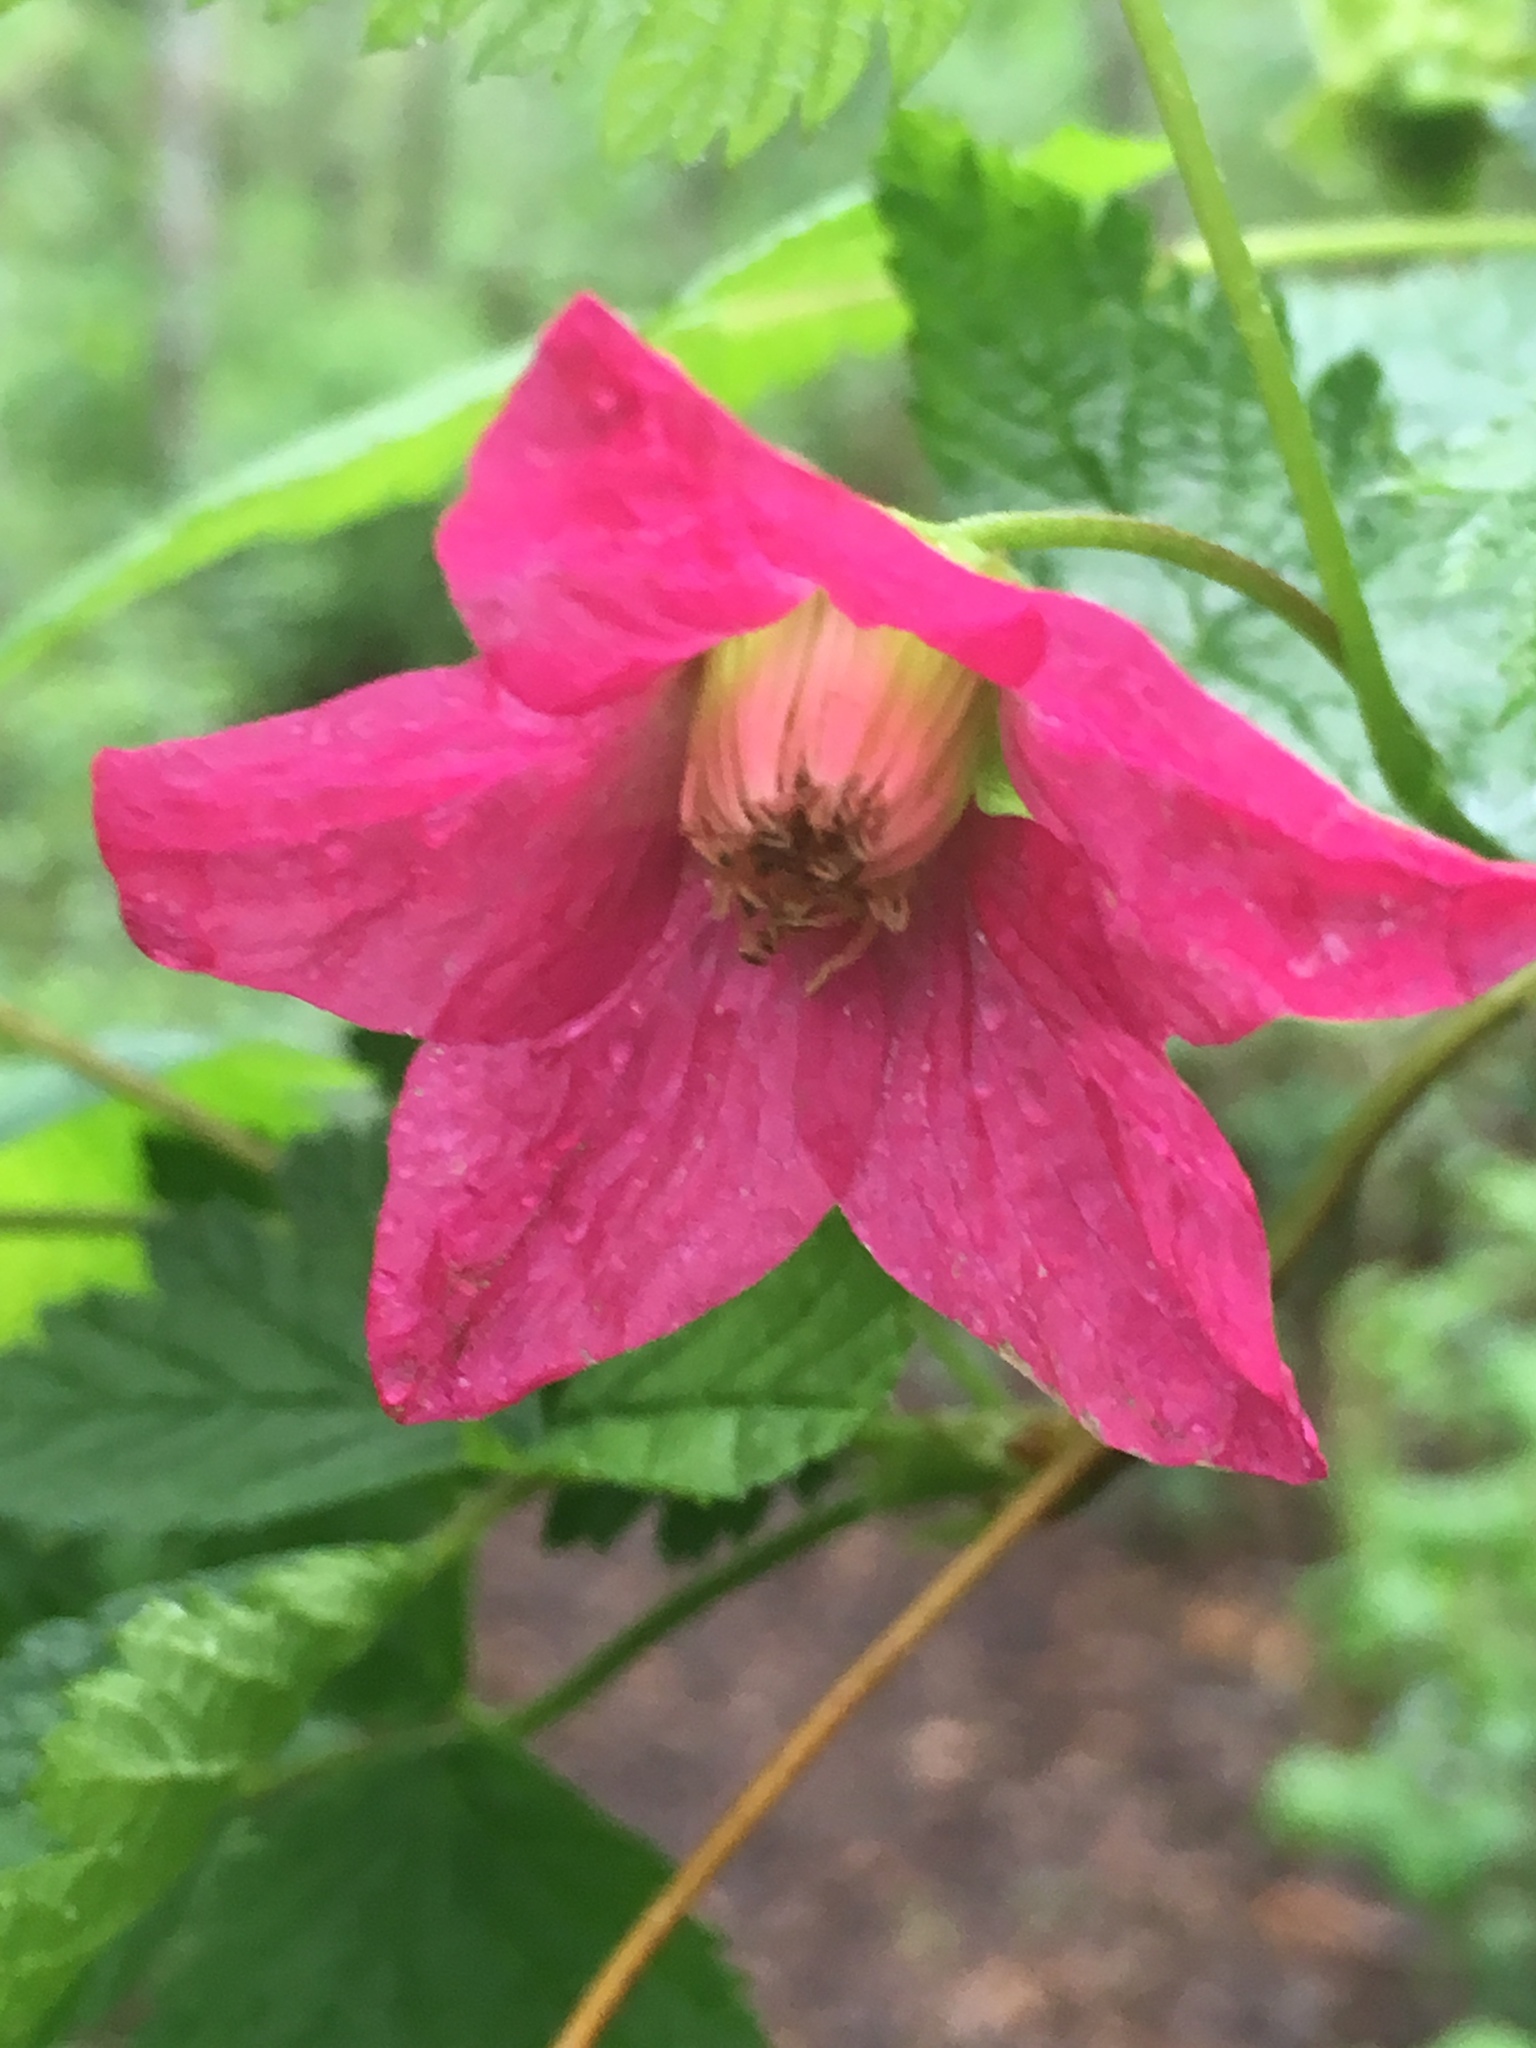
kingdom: Plantae
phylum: Tracheophyta
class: Magnoliopsida
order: Rosales
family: Rosaceae
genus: Rubus
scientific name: Rubus spectabilis
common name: Salmonberry
